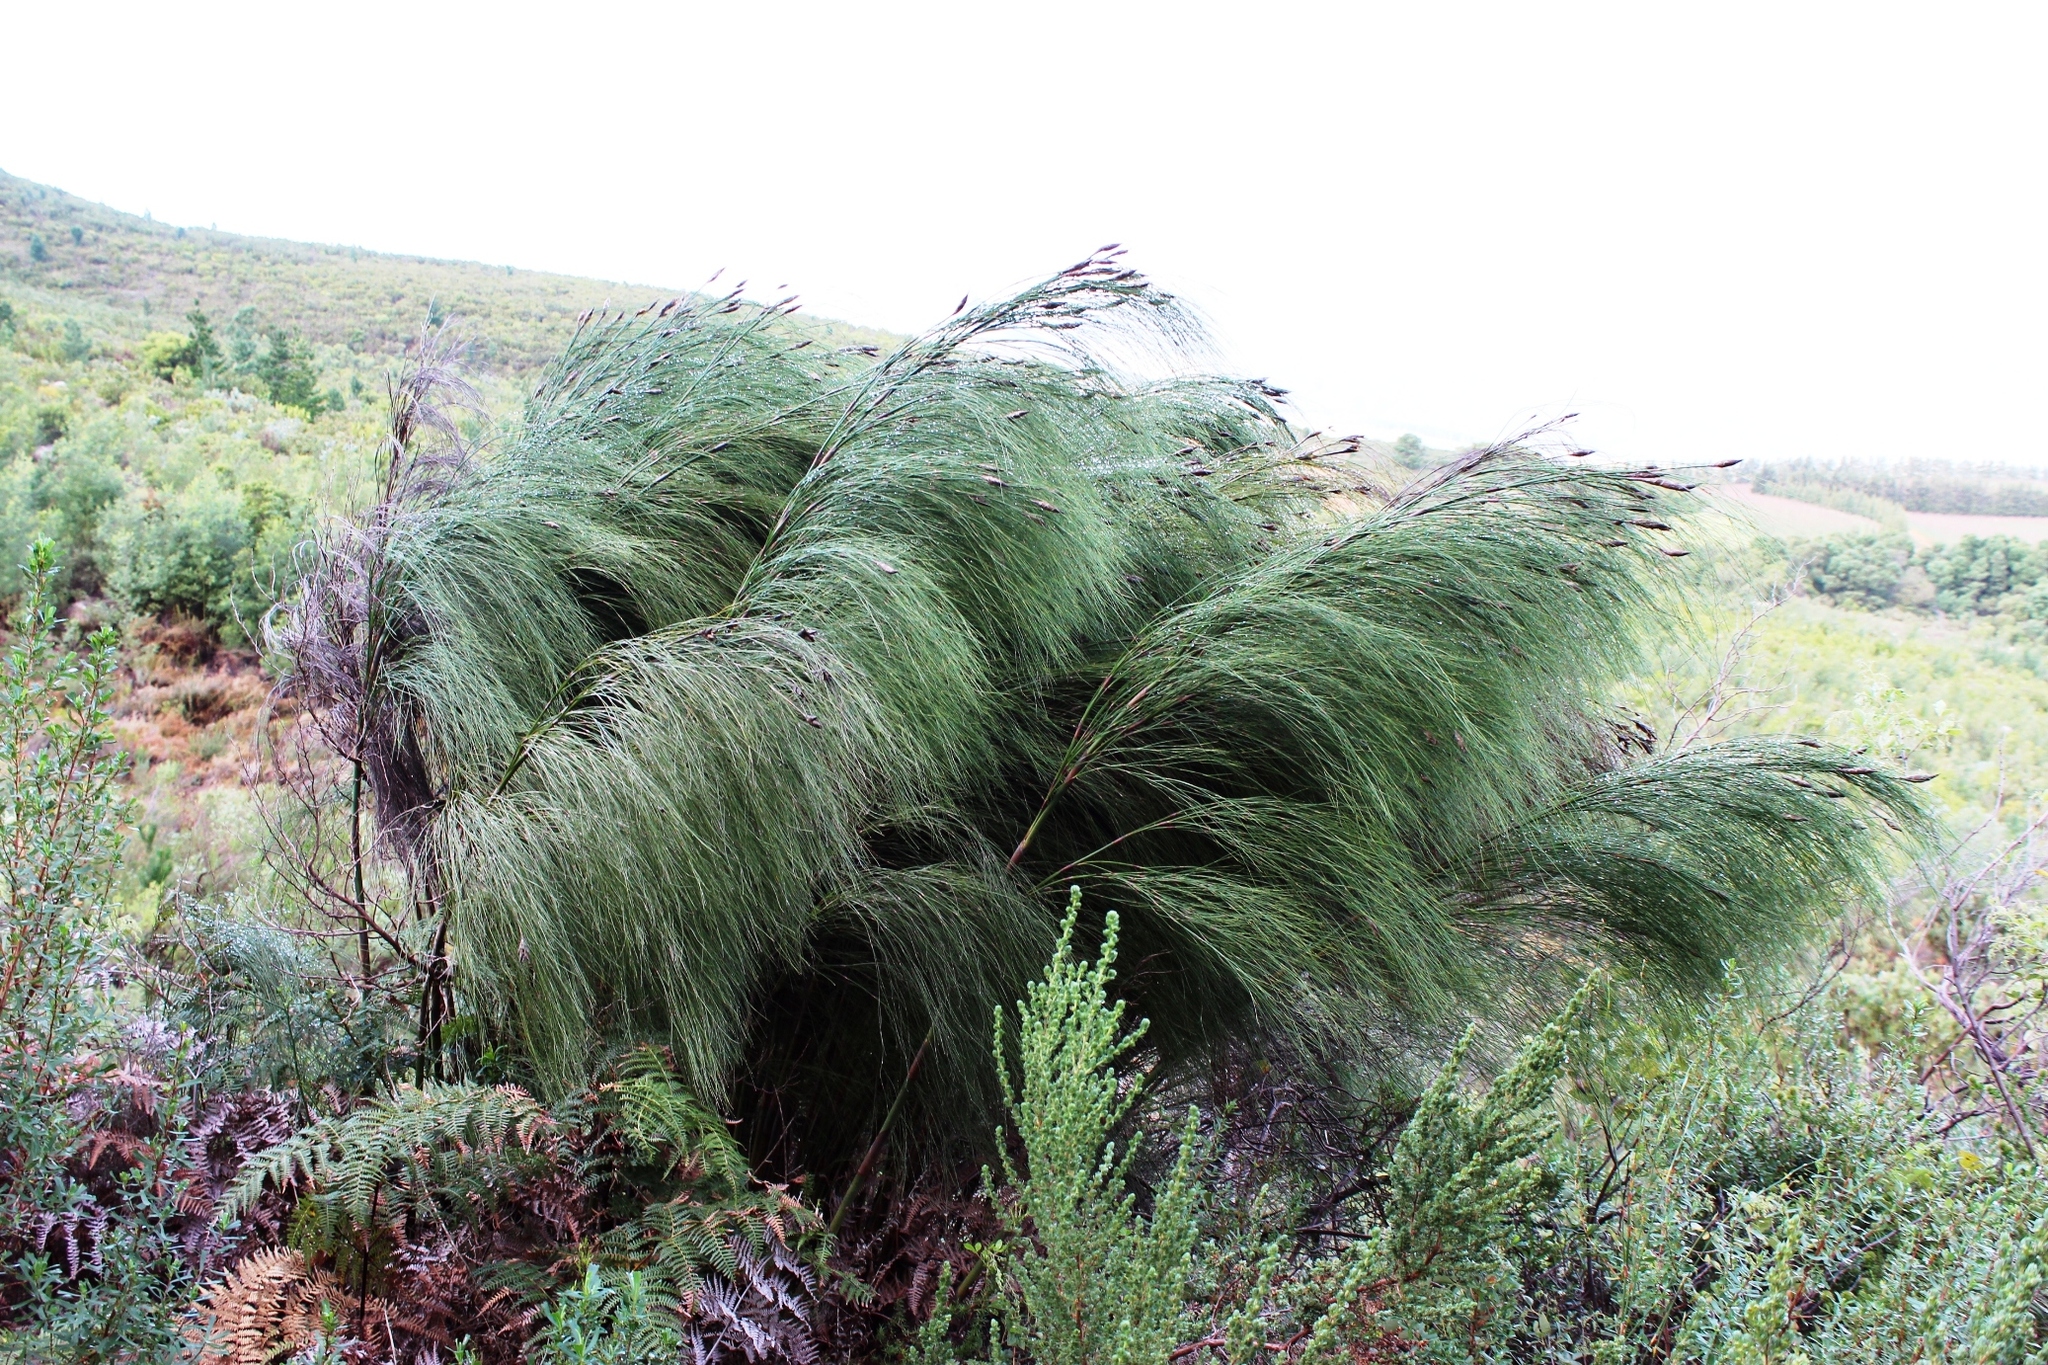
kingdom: Plantae
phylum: Tracheophyta
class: Liliopsida
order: Poales
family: Restionaceae
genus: Cannomois
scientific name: Cannomois virgata
